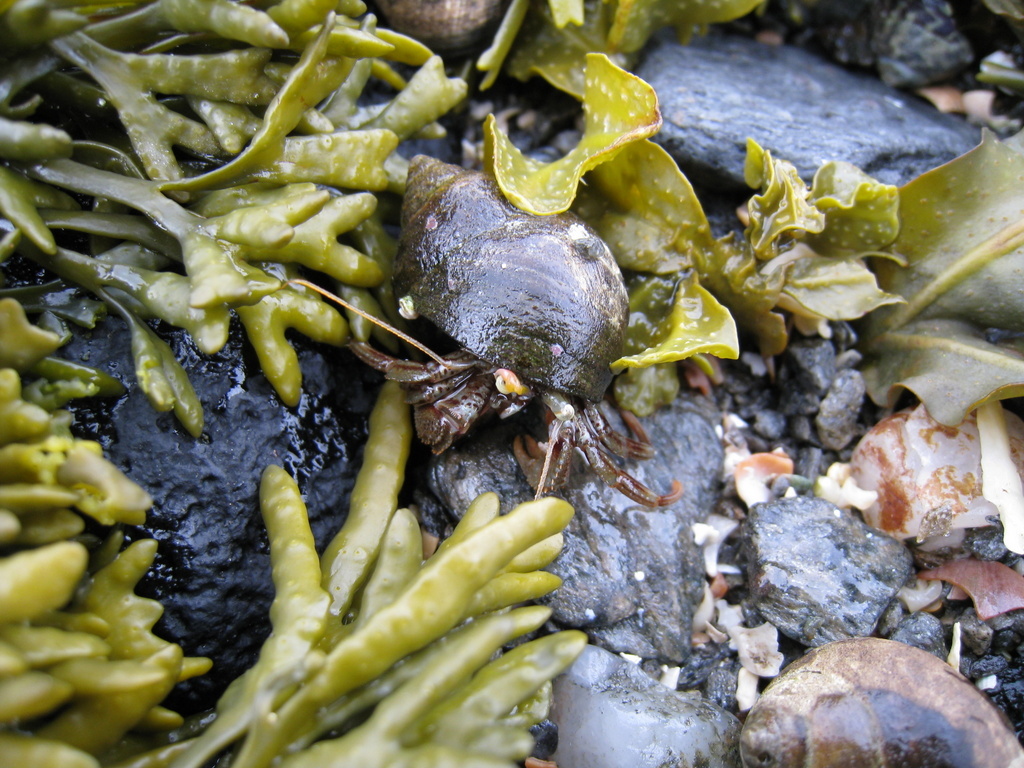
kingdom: Animalia
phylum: Arthropoda
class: Malacostraca
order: Decapoda
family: Paguridae
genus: Pagurus
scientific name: Pagurus bernhardus
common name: Hermit crab
